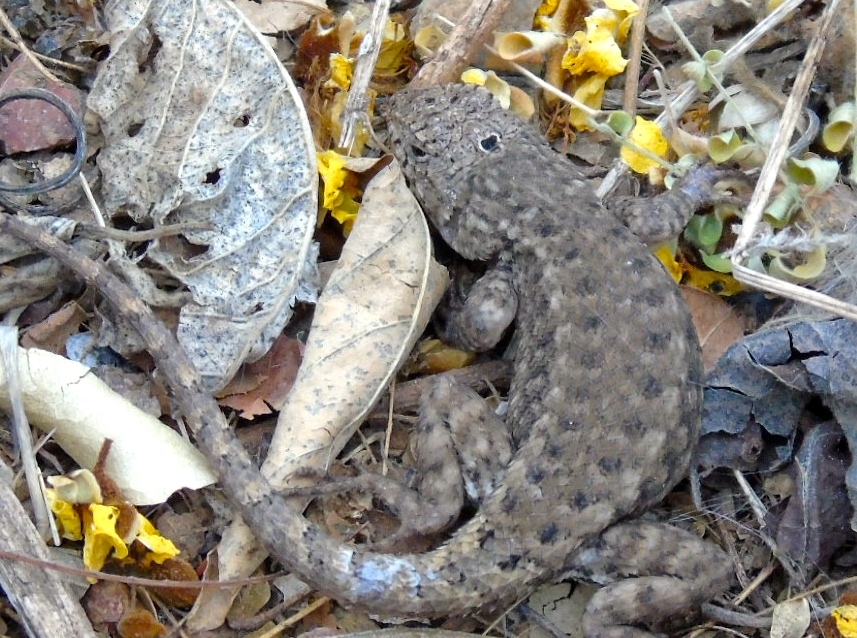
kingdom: Animalia
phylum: Chordata
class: Squamata
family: Phrynosomatidae
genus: Sceloporus
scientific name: Sceloporus nelsoni
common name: Nelson's spiny lizard
